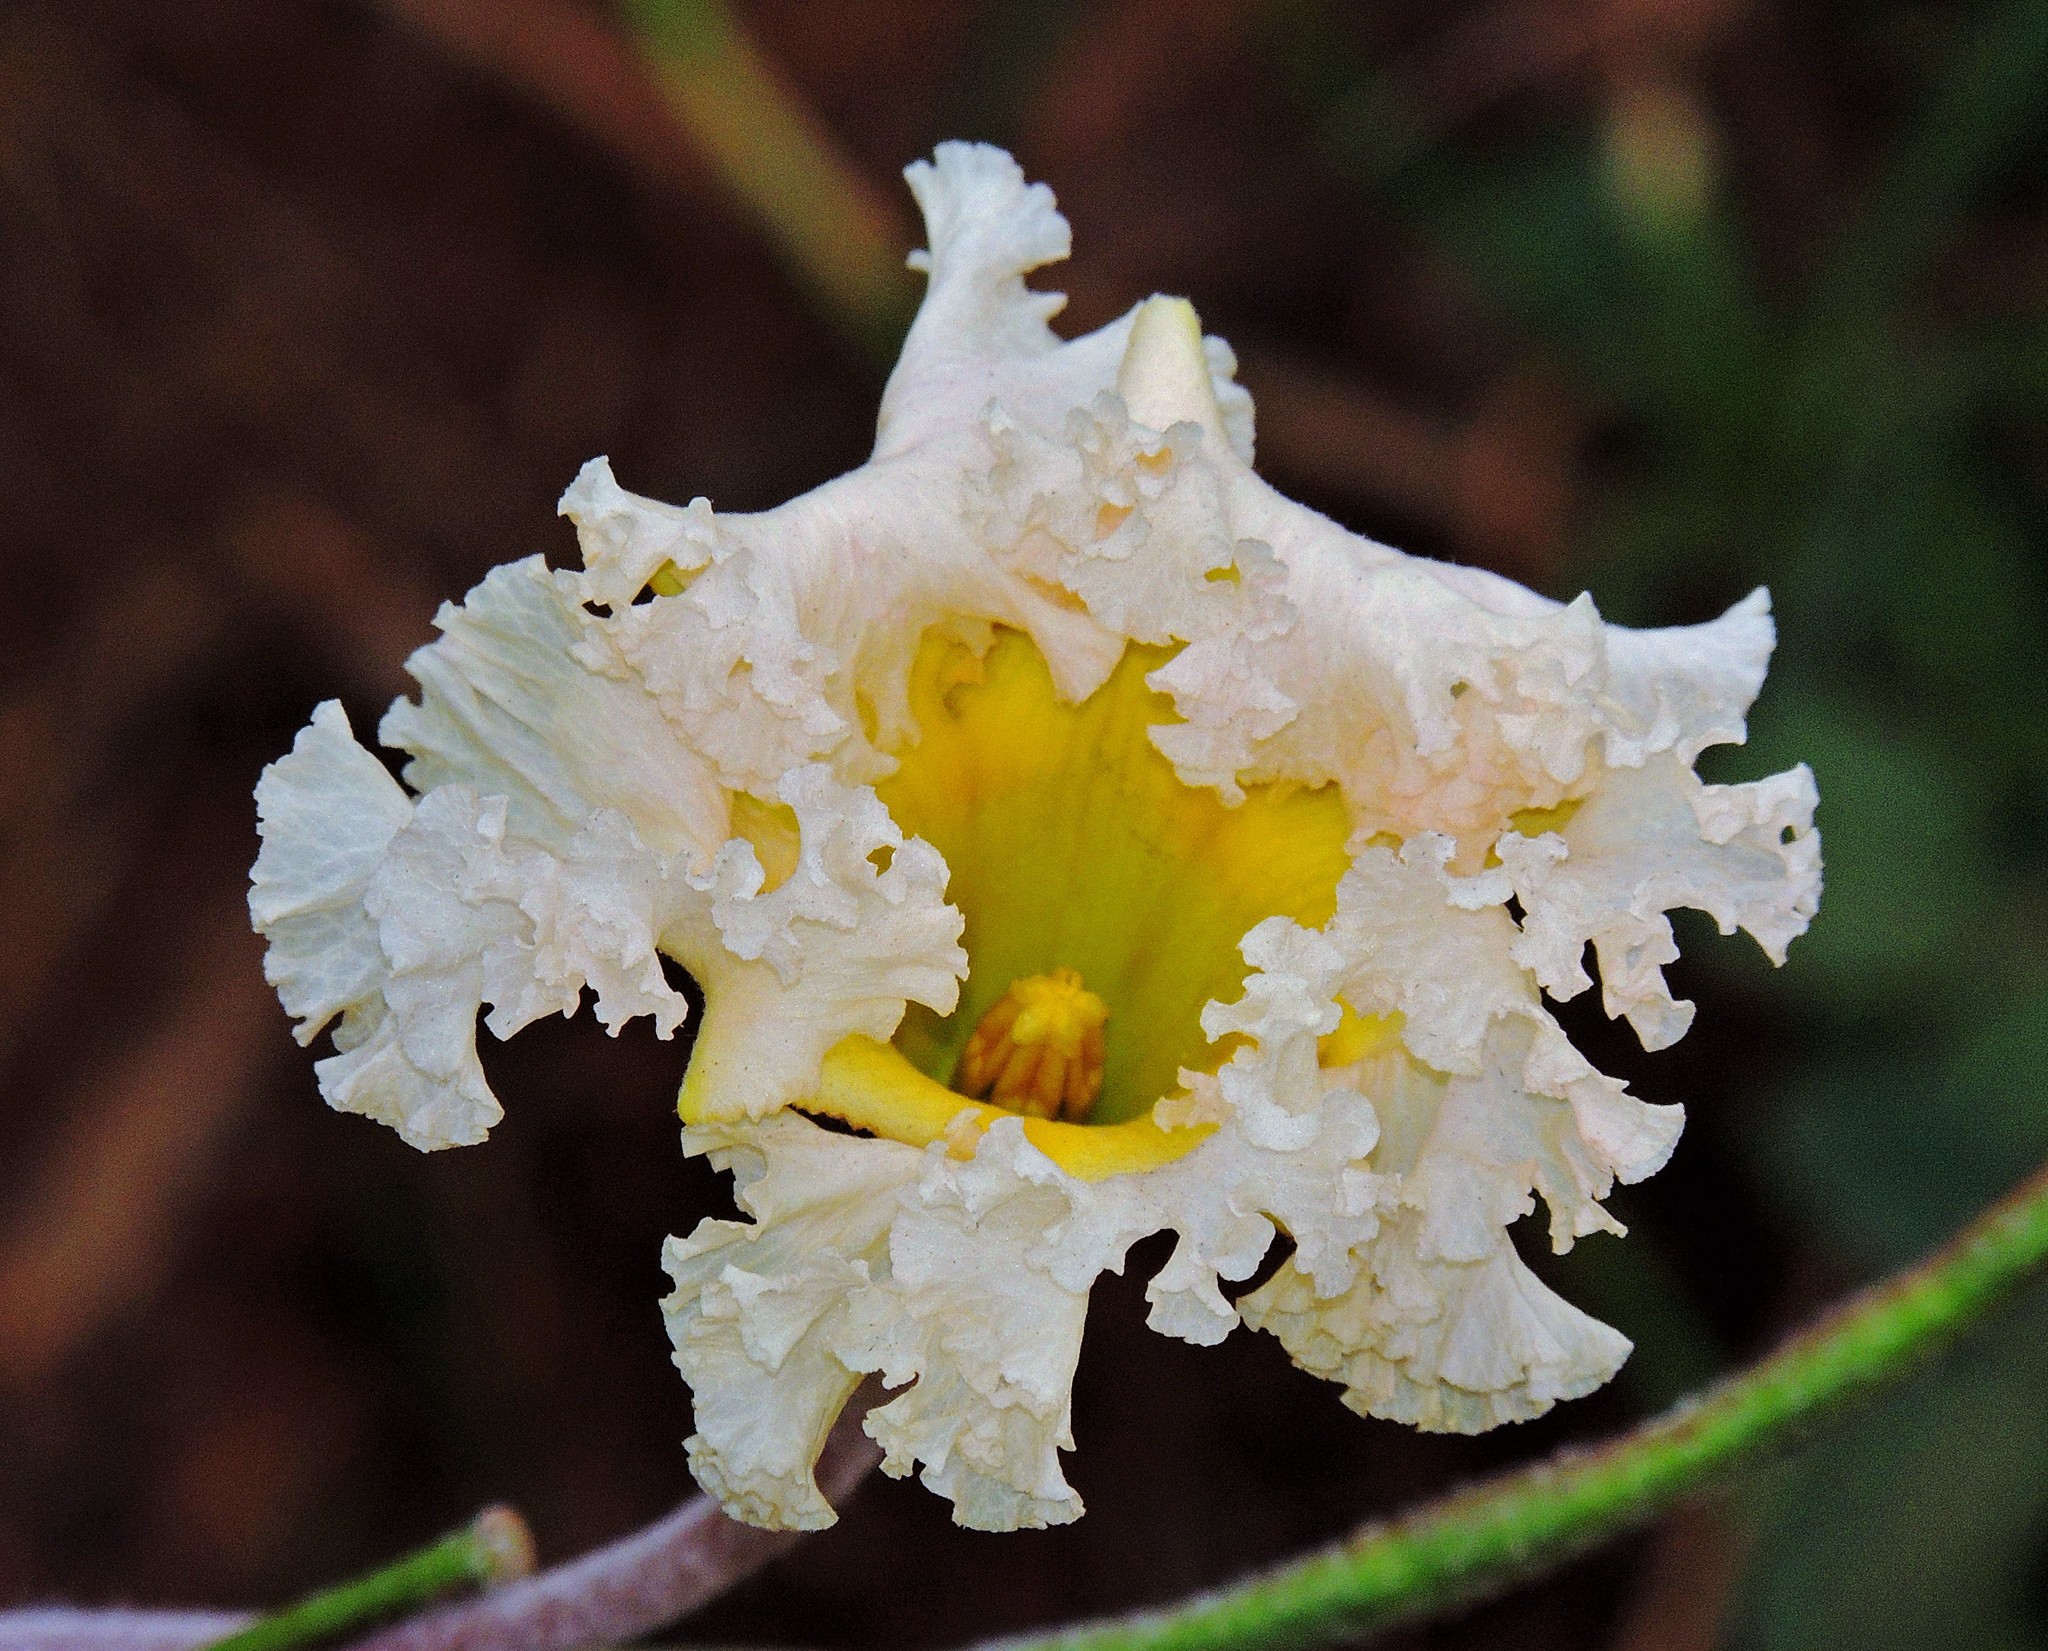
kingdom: Plantae
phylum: Tracheophyta
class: Magnoliopsida
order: Gentianales
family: Apocynaceae
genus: Mandevilla
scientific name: Mandevilla petraea
